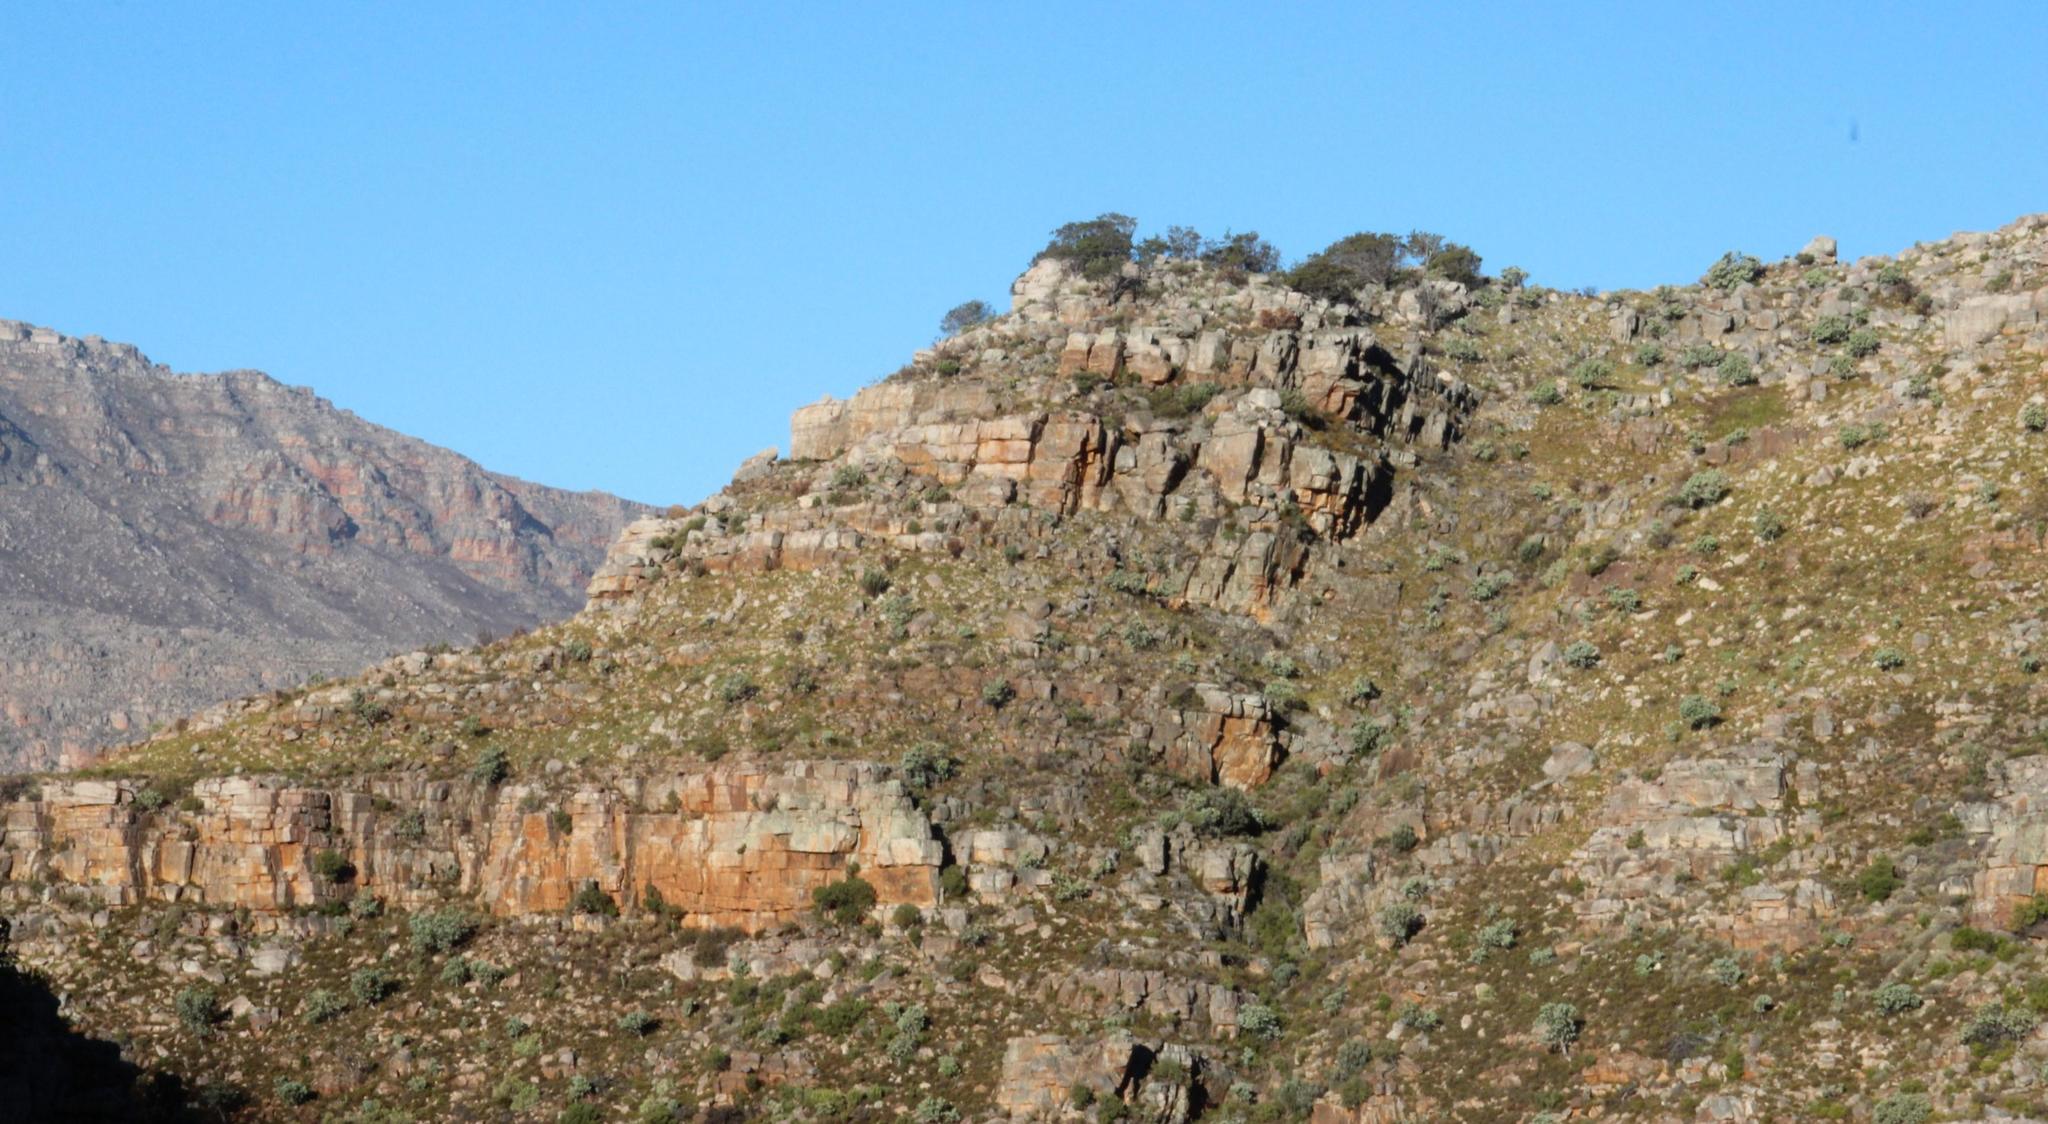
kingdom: Plantae
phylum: Tracheophyta
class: Pinopsida
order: Pinales
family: Cupressaceae
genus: Widdringtonia
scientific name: Widdringtonia nodiflora
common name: Cape cypress
